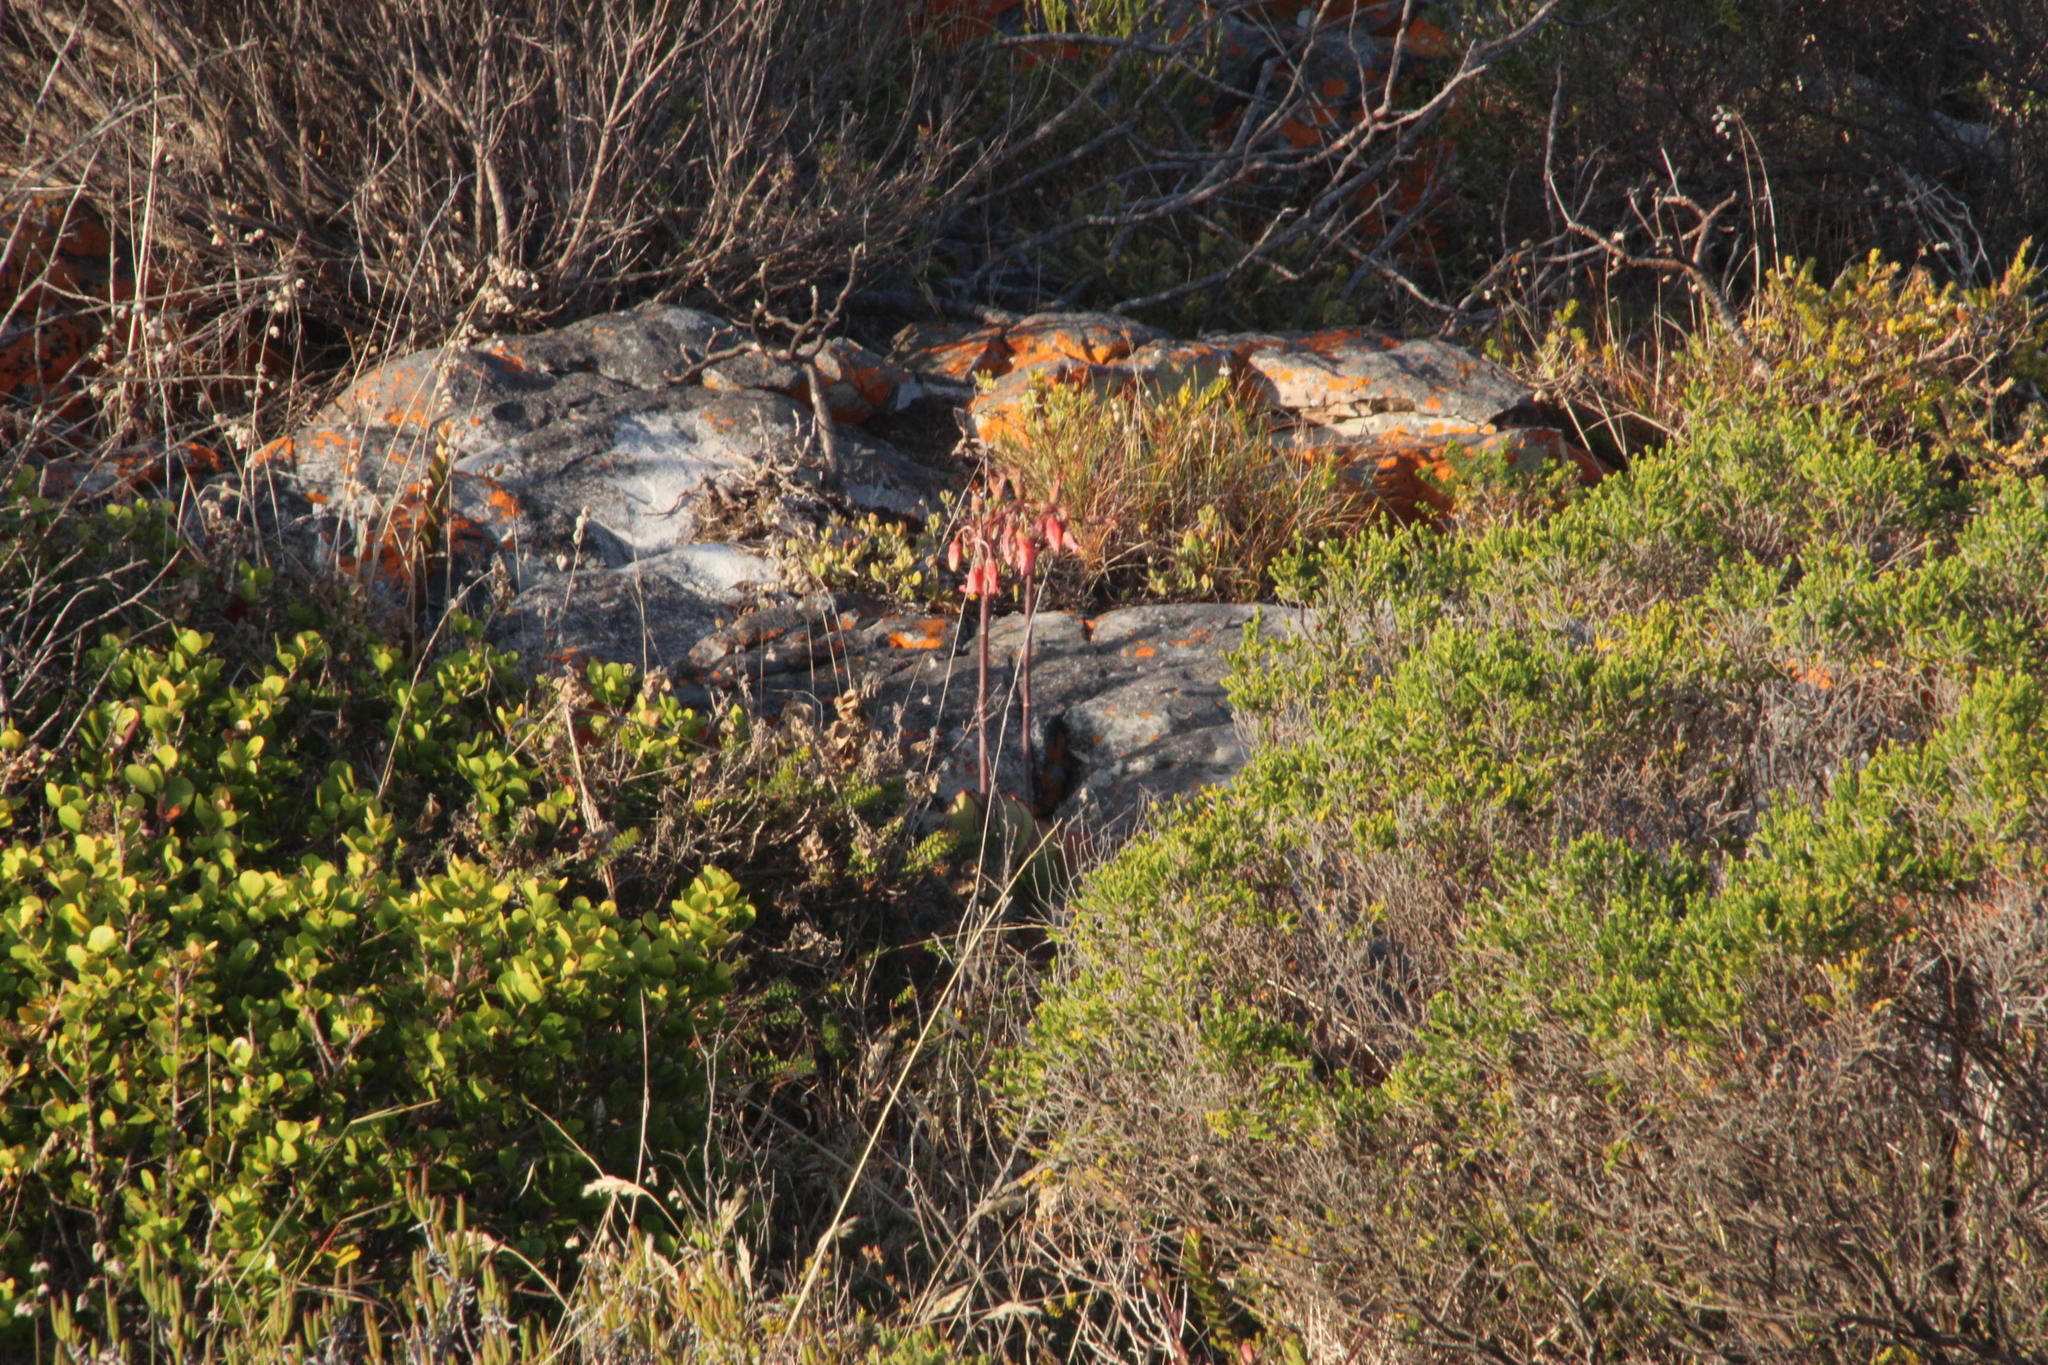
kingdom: Plantae
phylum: Tracheophyta
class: Magnoliopsida
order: Saxifragales
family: Crassulaceae
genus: Cotyledon
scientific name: Cotyledon orbiculata
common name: Pig's ear
